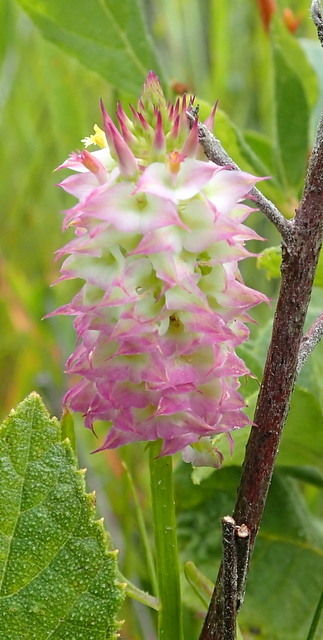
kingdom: Plantae
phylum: Tracheophyta
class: Magnoliopsida
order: Fabales
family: Polygalaceae
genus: Polygala
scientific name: Polygala cruciata
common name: Drumheads
